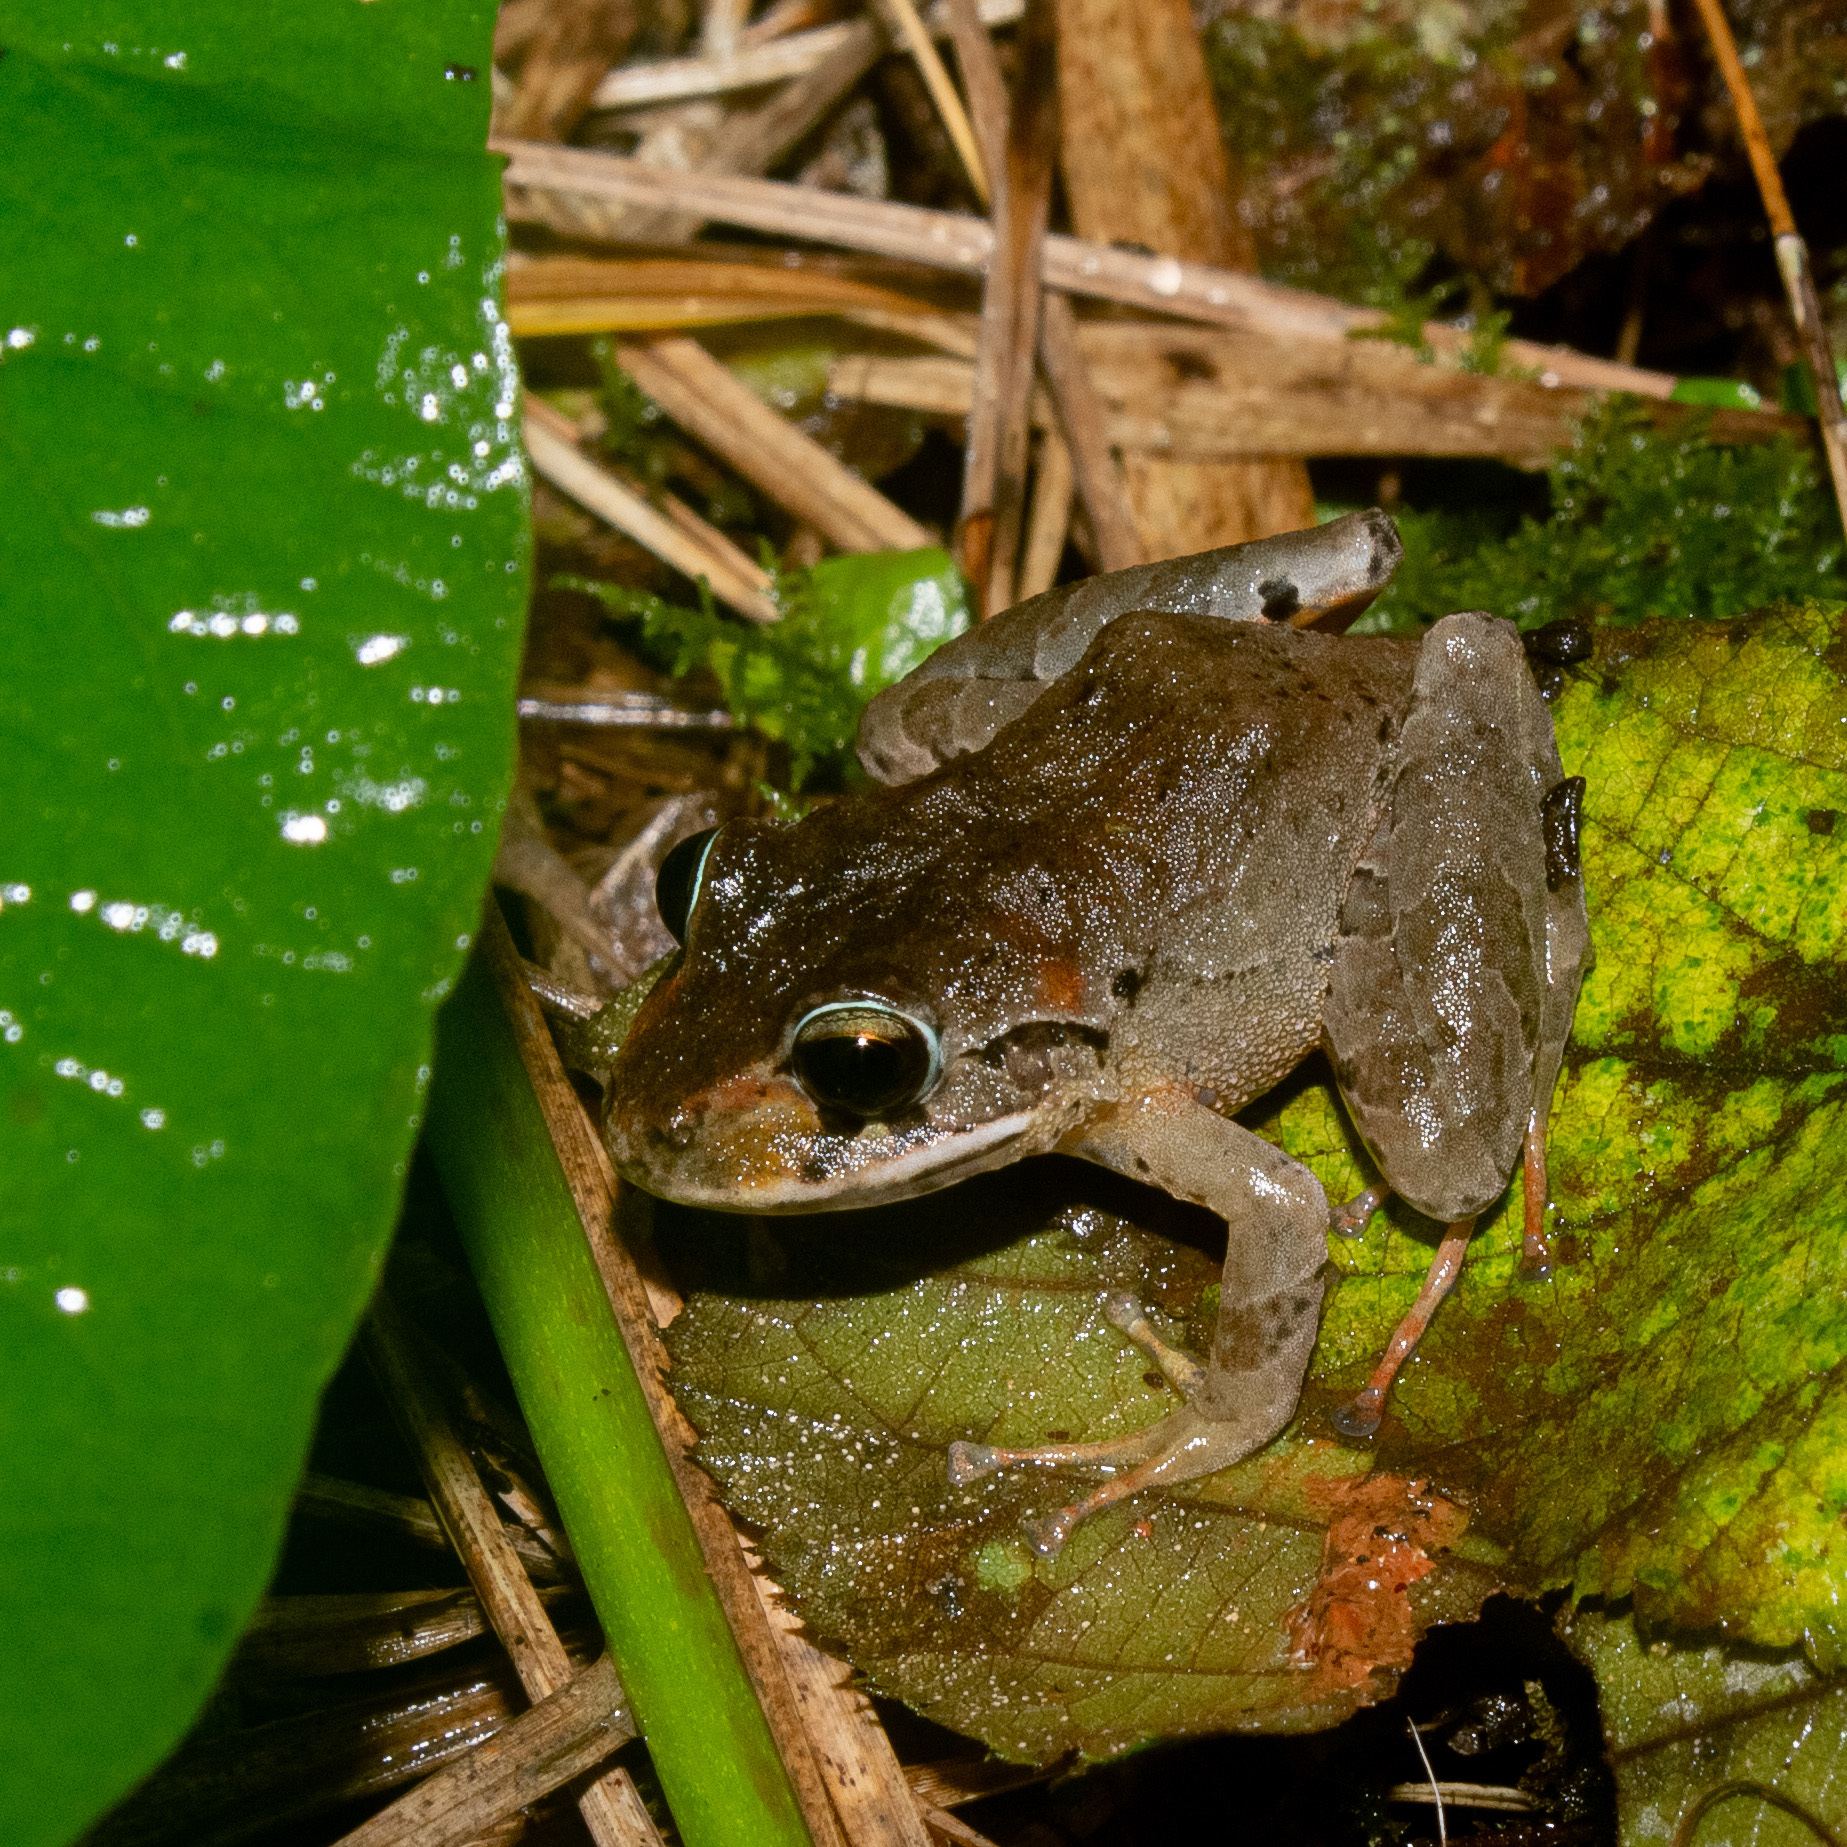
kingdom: Animalia
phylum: Chordata
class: Amphibia
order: Anura
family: Craugastoridae
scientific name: Craugastoridae
